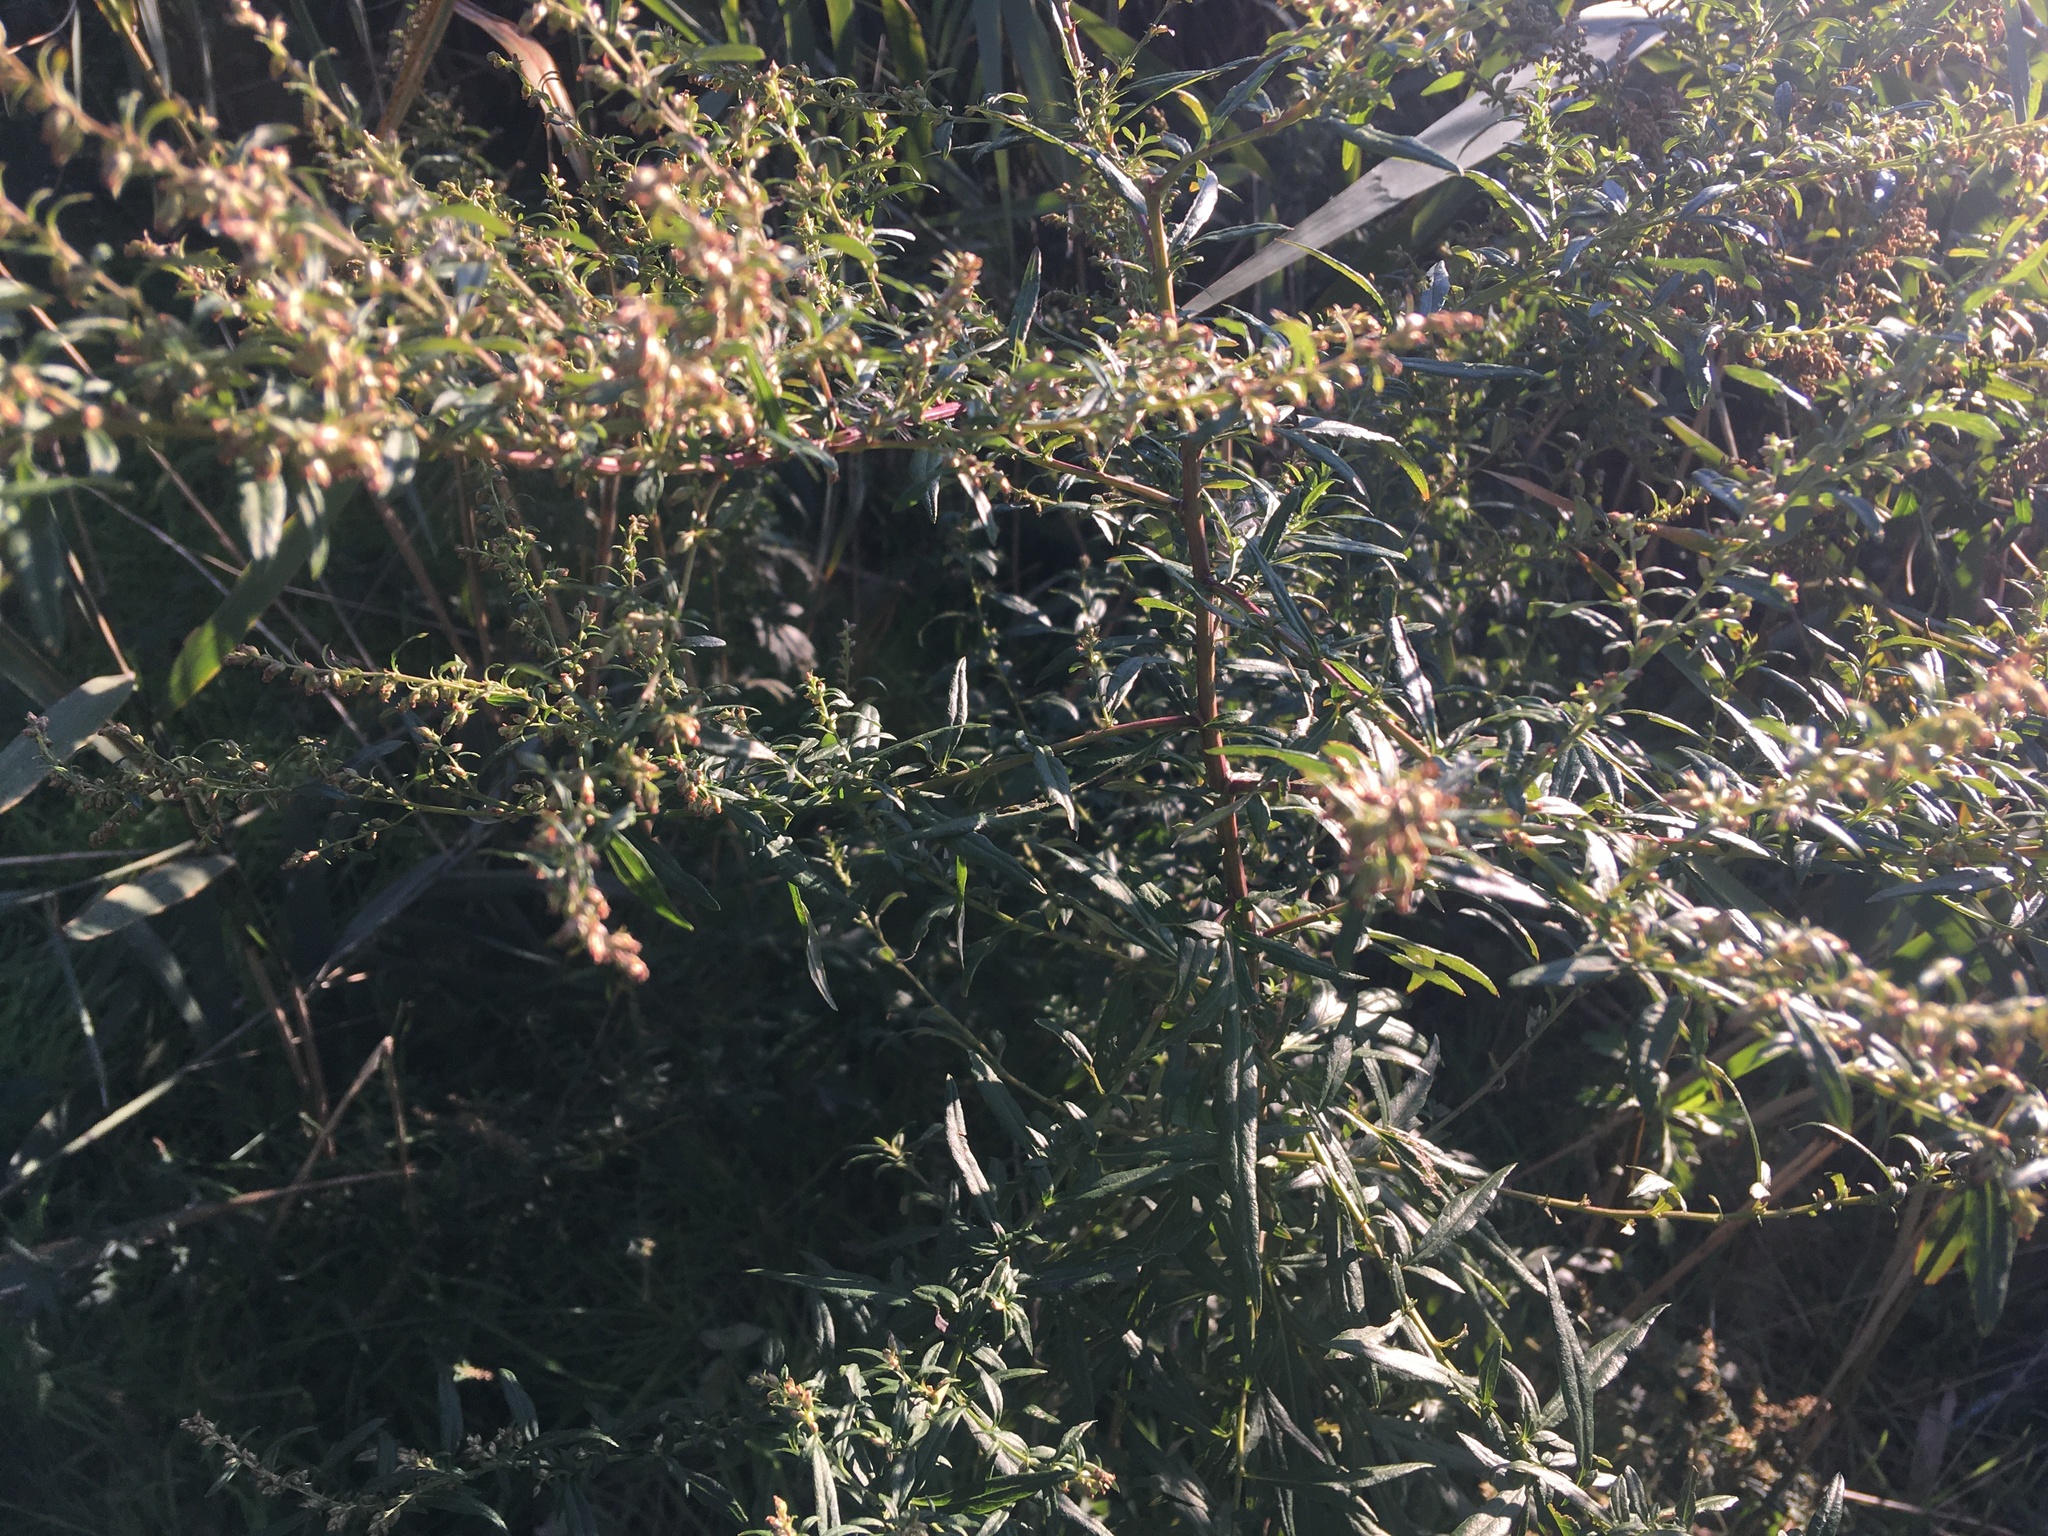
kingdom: Plantae
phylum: Tracheophyta
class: Magnoliopsida
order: Asterales
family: Asteraceae
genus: Artemisia
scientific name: Artemisia vulgaris
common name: Mugwort
